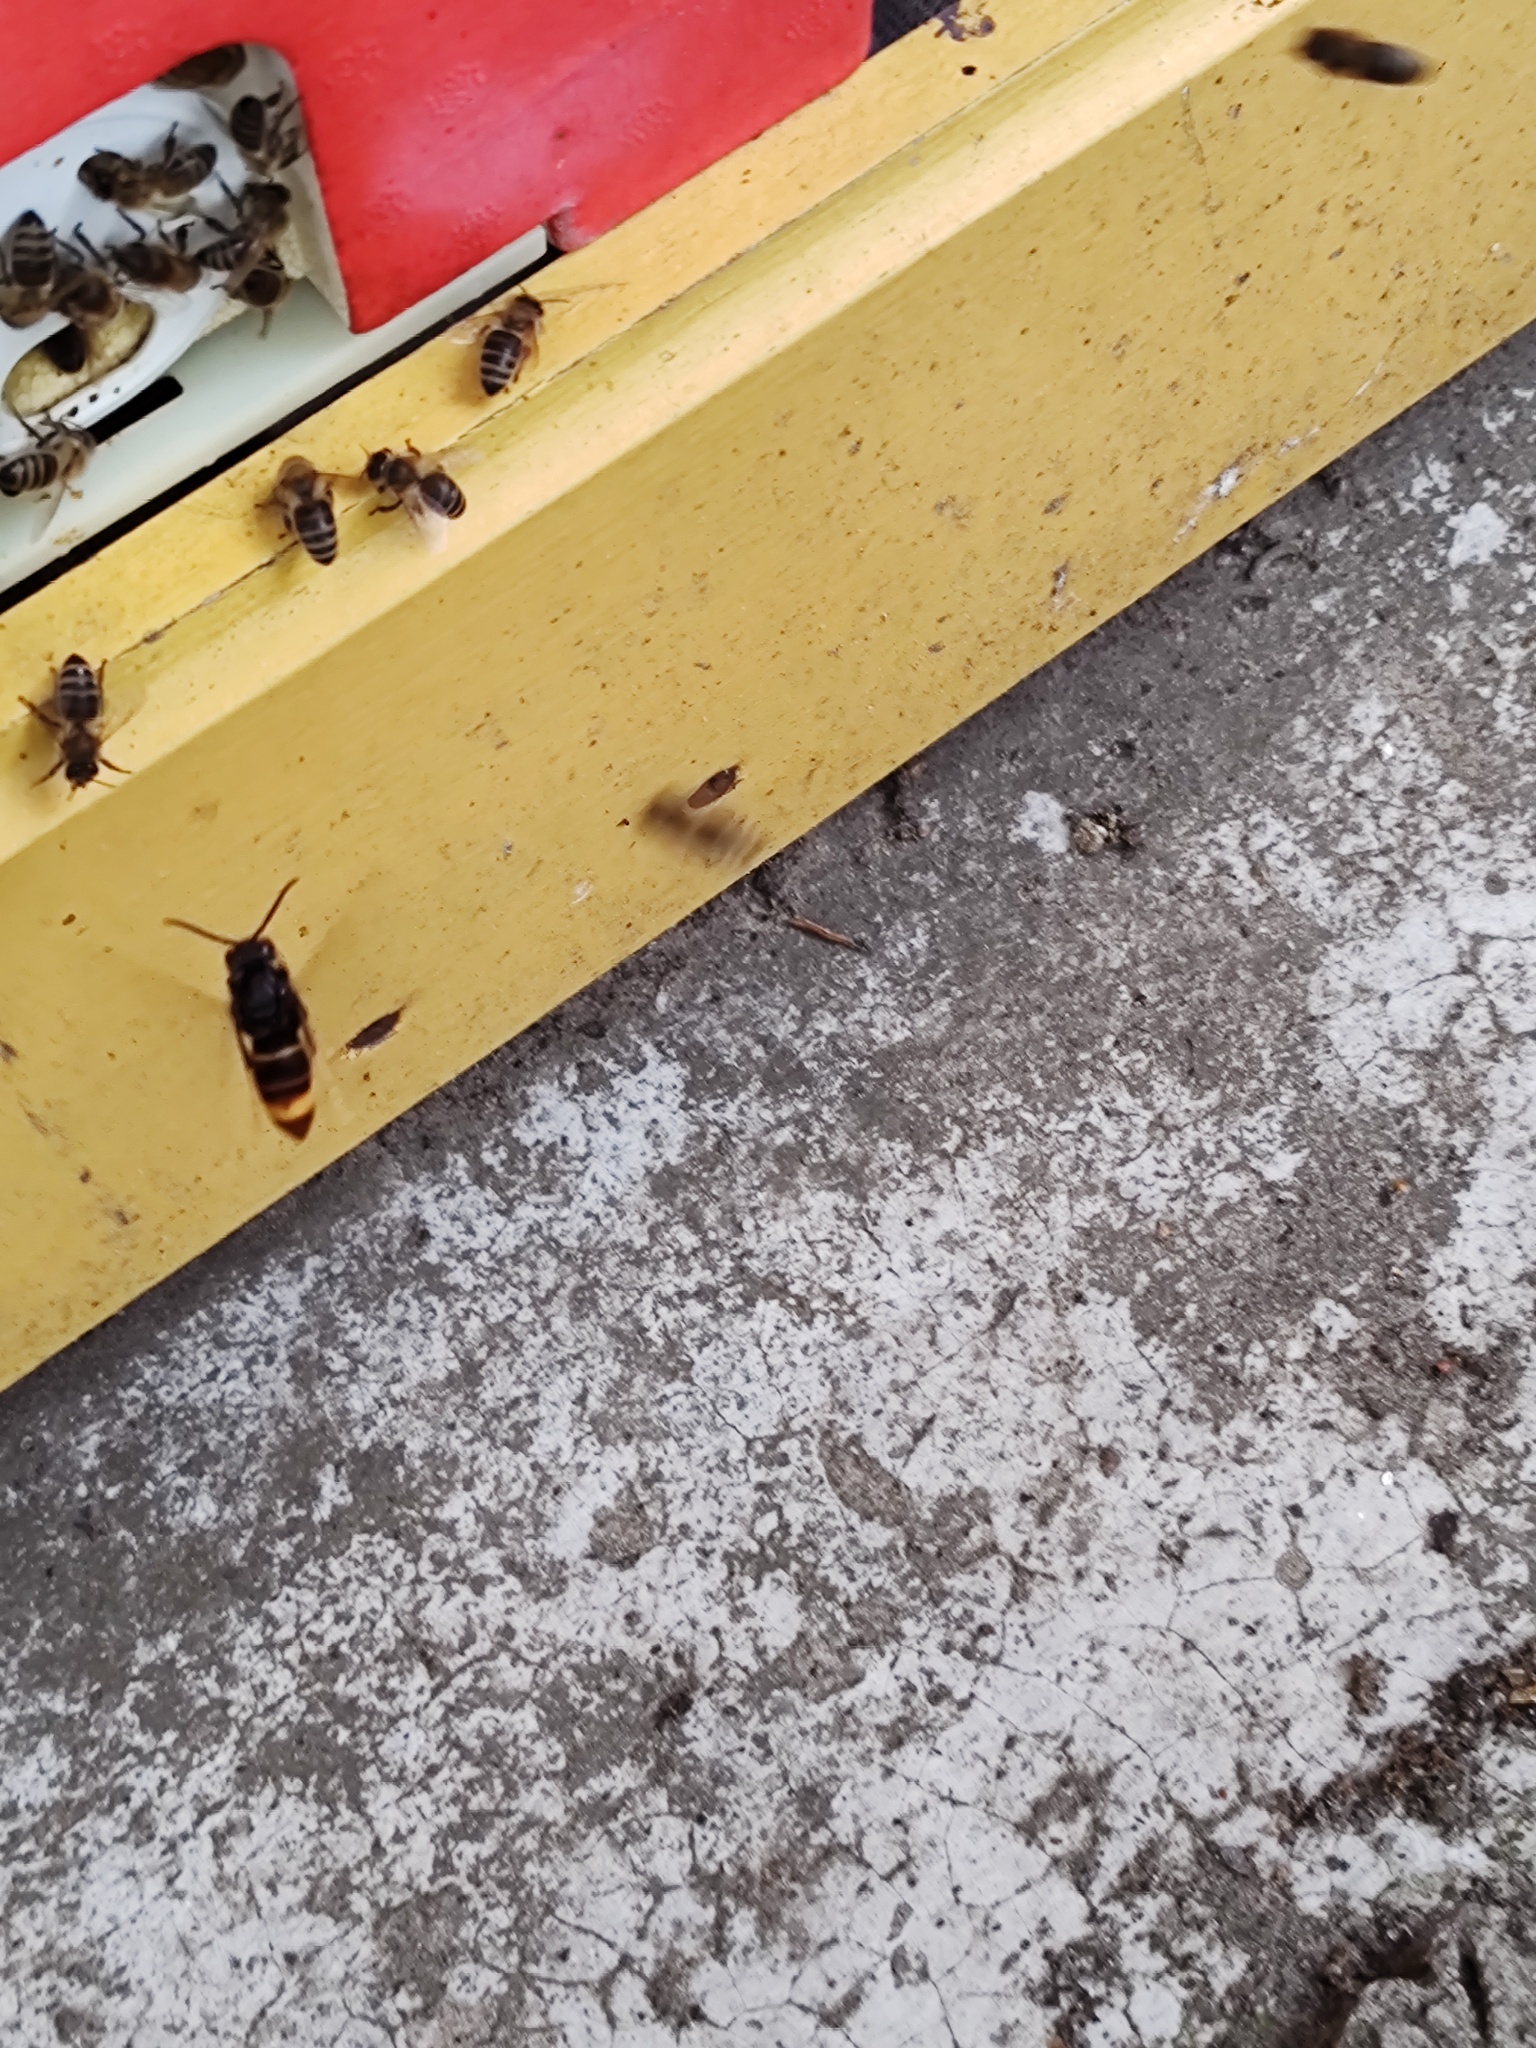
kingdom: Animalia
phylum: Arthropoda
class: Insecta
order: Hymenoptera
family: Vespidae
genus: Vespa
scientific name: Vespa velutina
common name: Asian hornet
